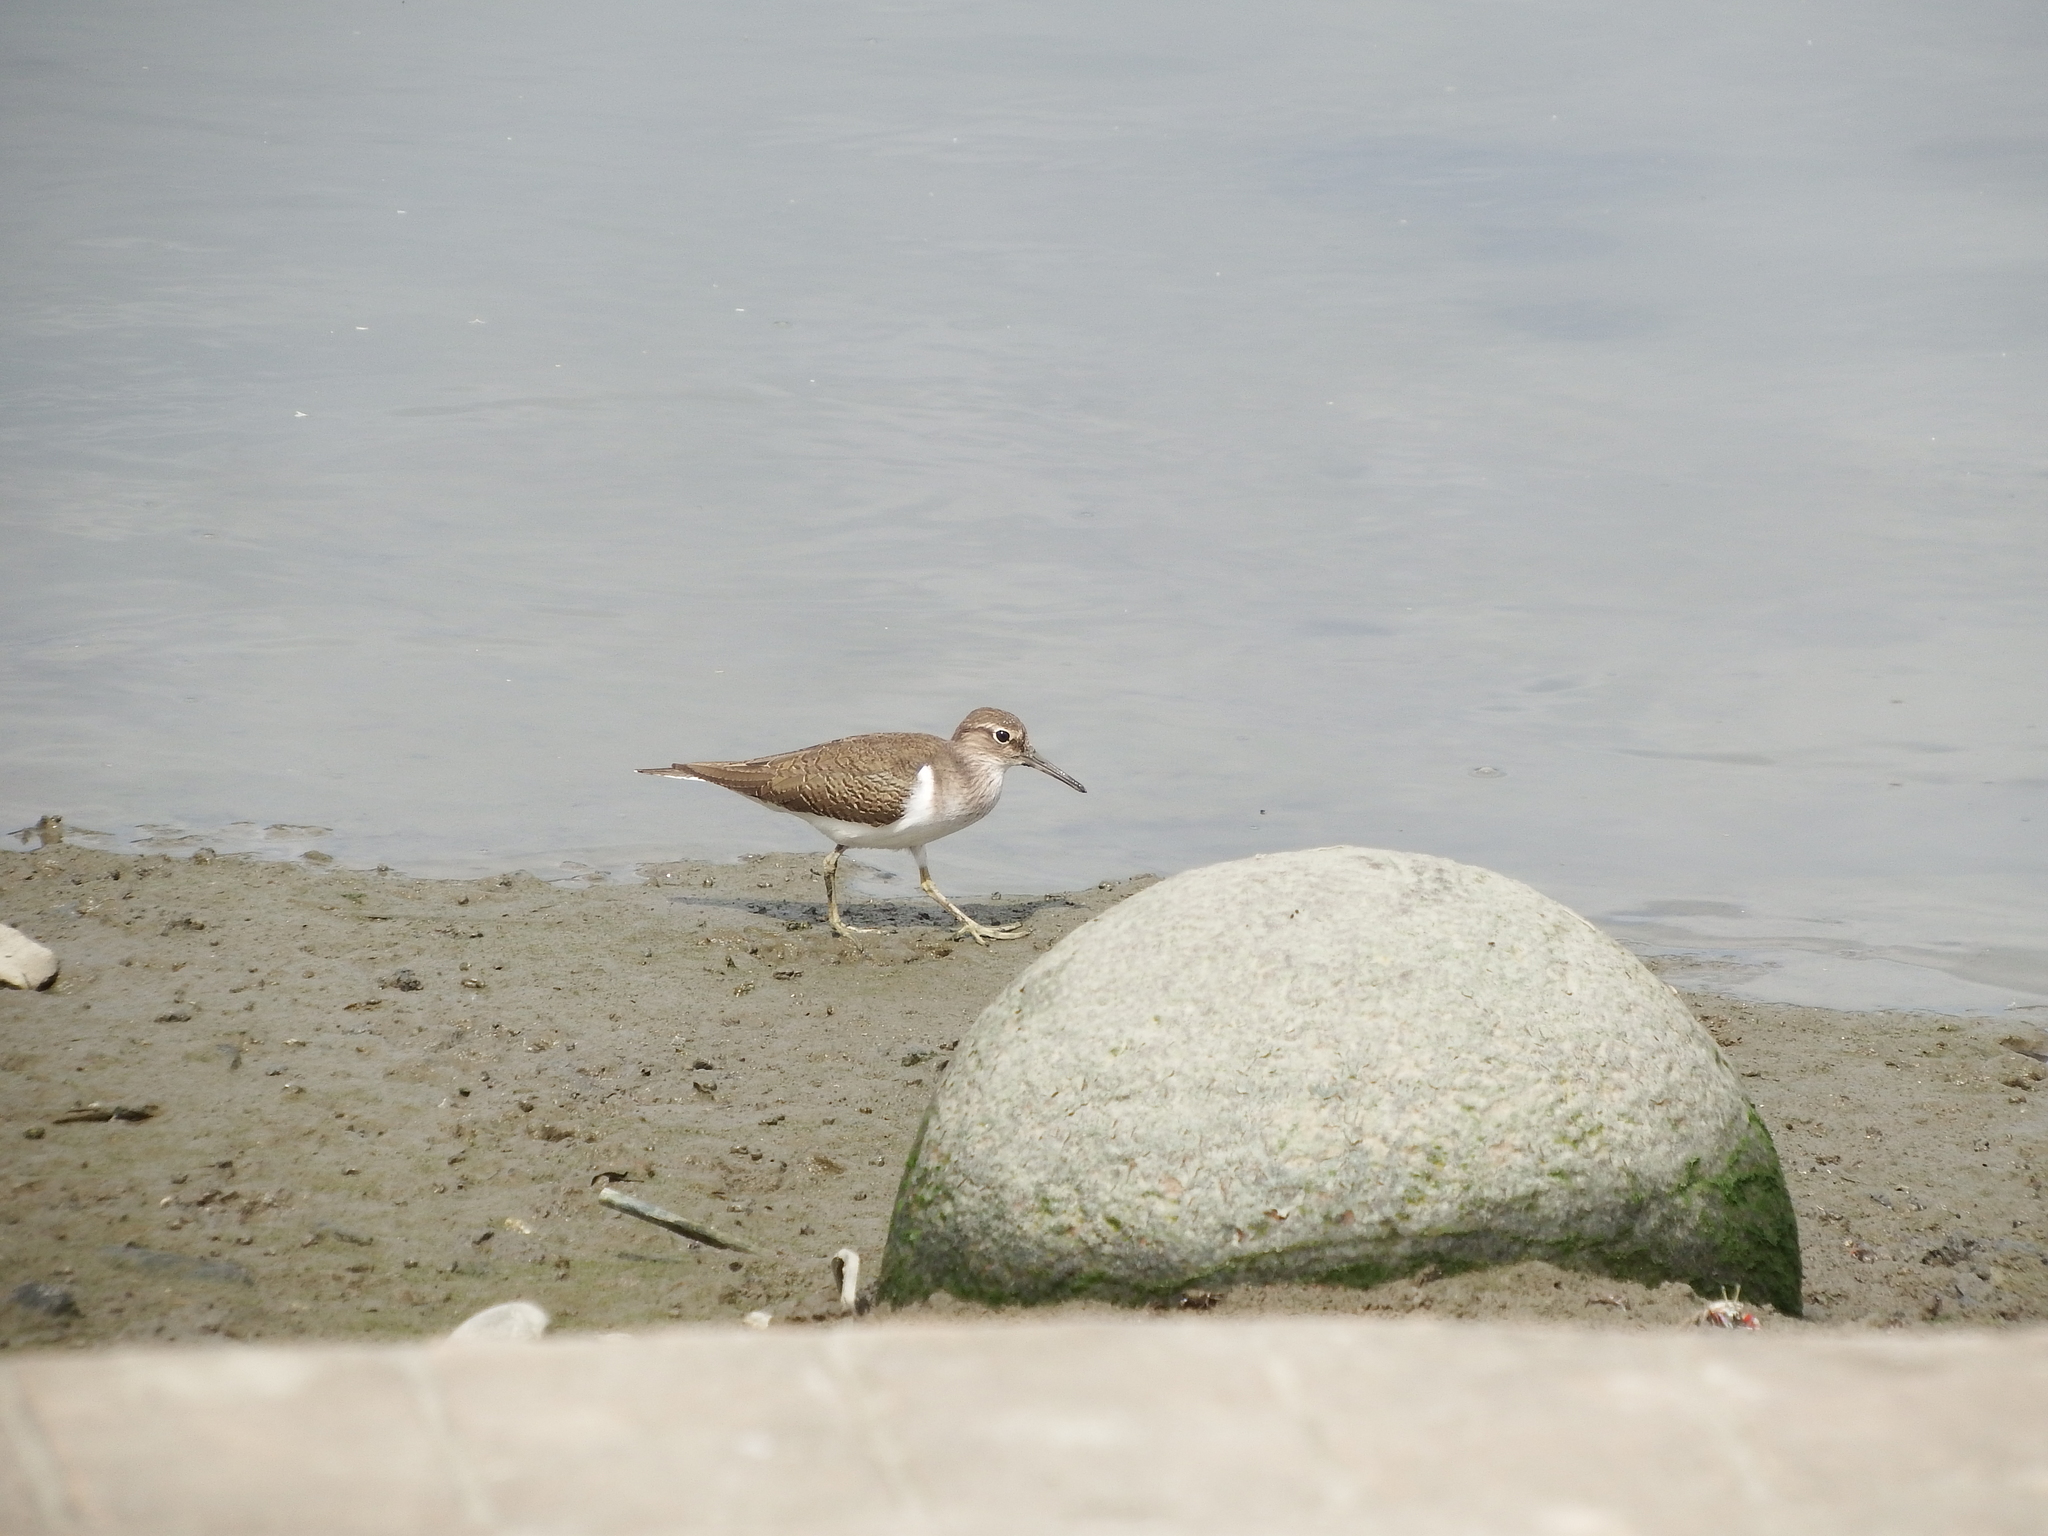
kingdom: Animalia
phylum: Chordata
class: Aves
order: Charadriiformes
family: Scolopacidae
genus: Actitis
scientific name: Actitis hypoleucos
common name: Common sandpiper
